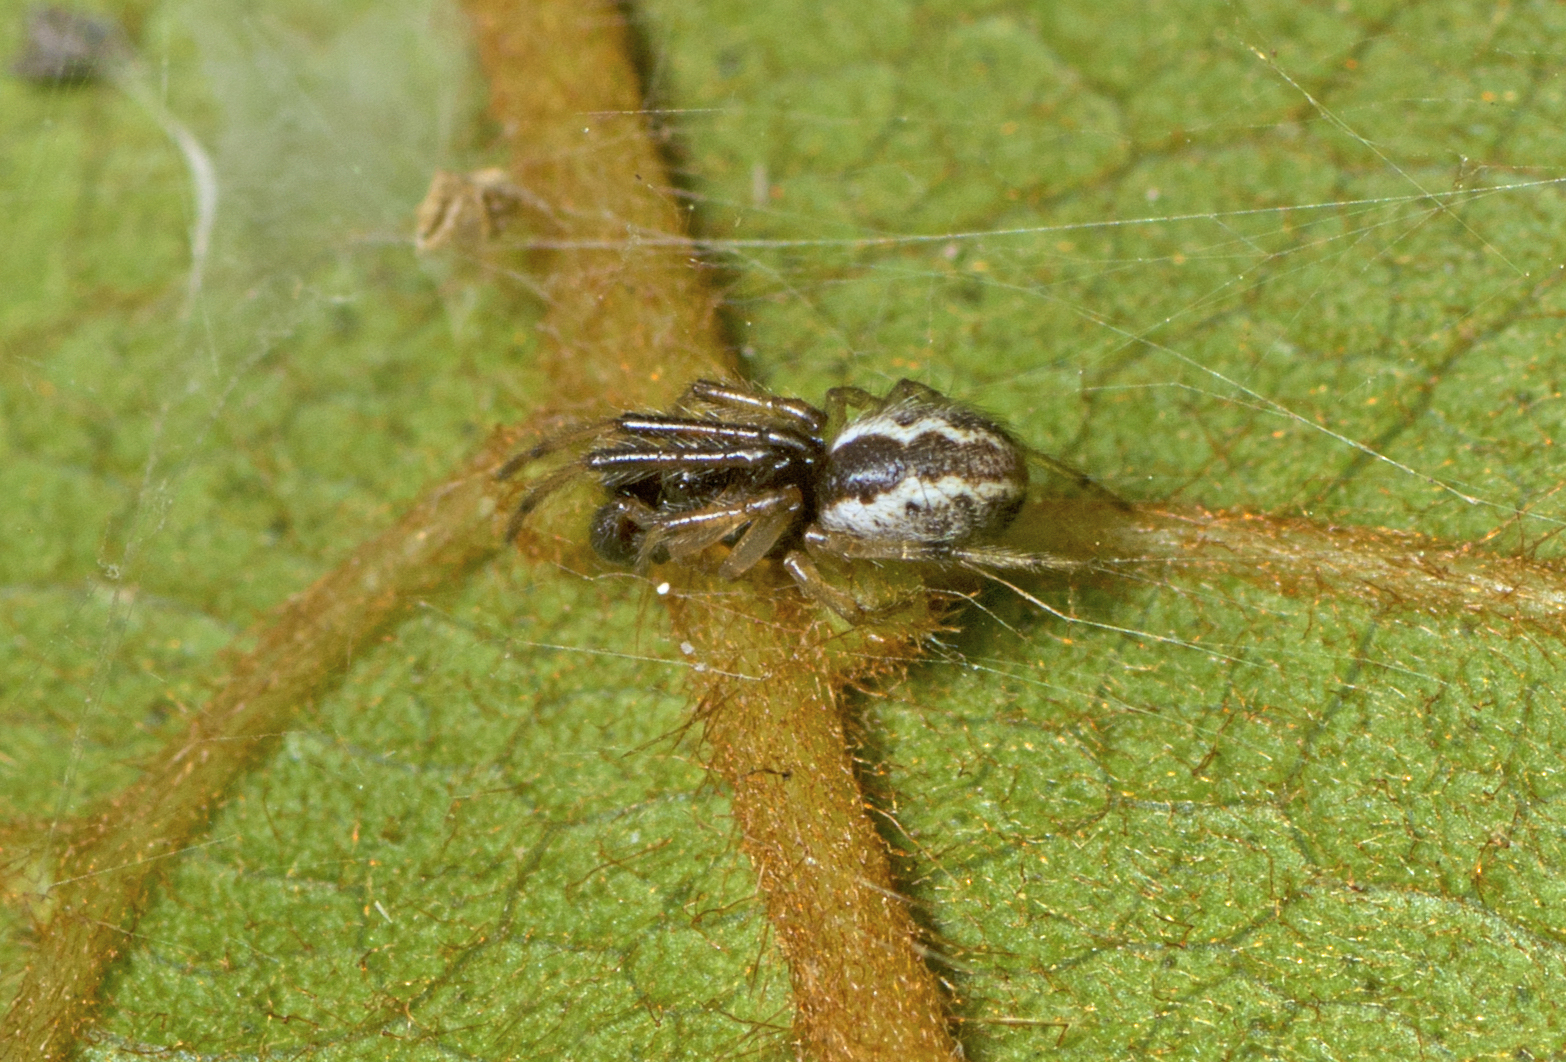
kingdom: Animalia
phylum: Arthropoda
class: Arachnida
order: Araneae
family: Theridiidae
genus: Theridion
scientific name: Theridion theridioides
